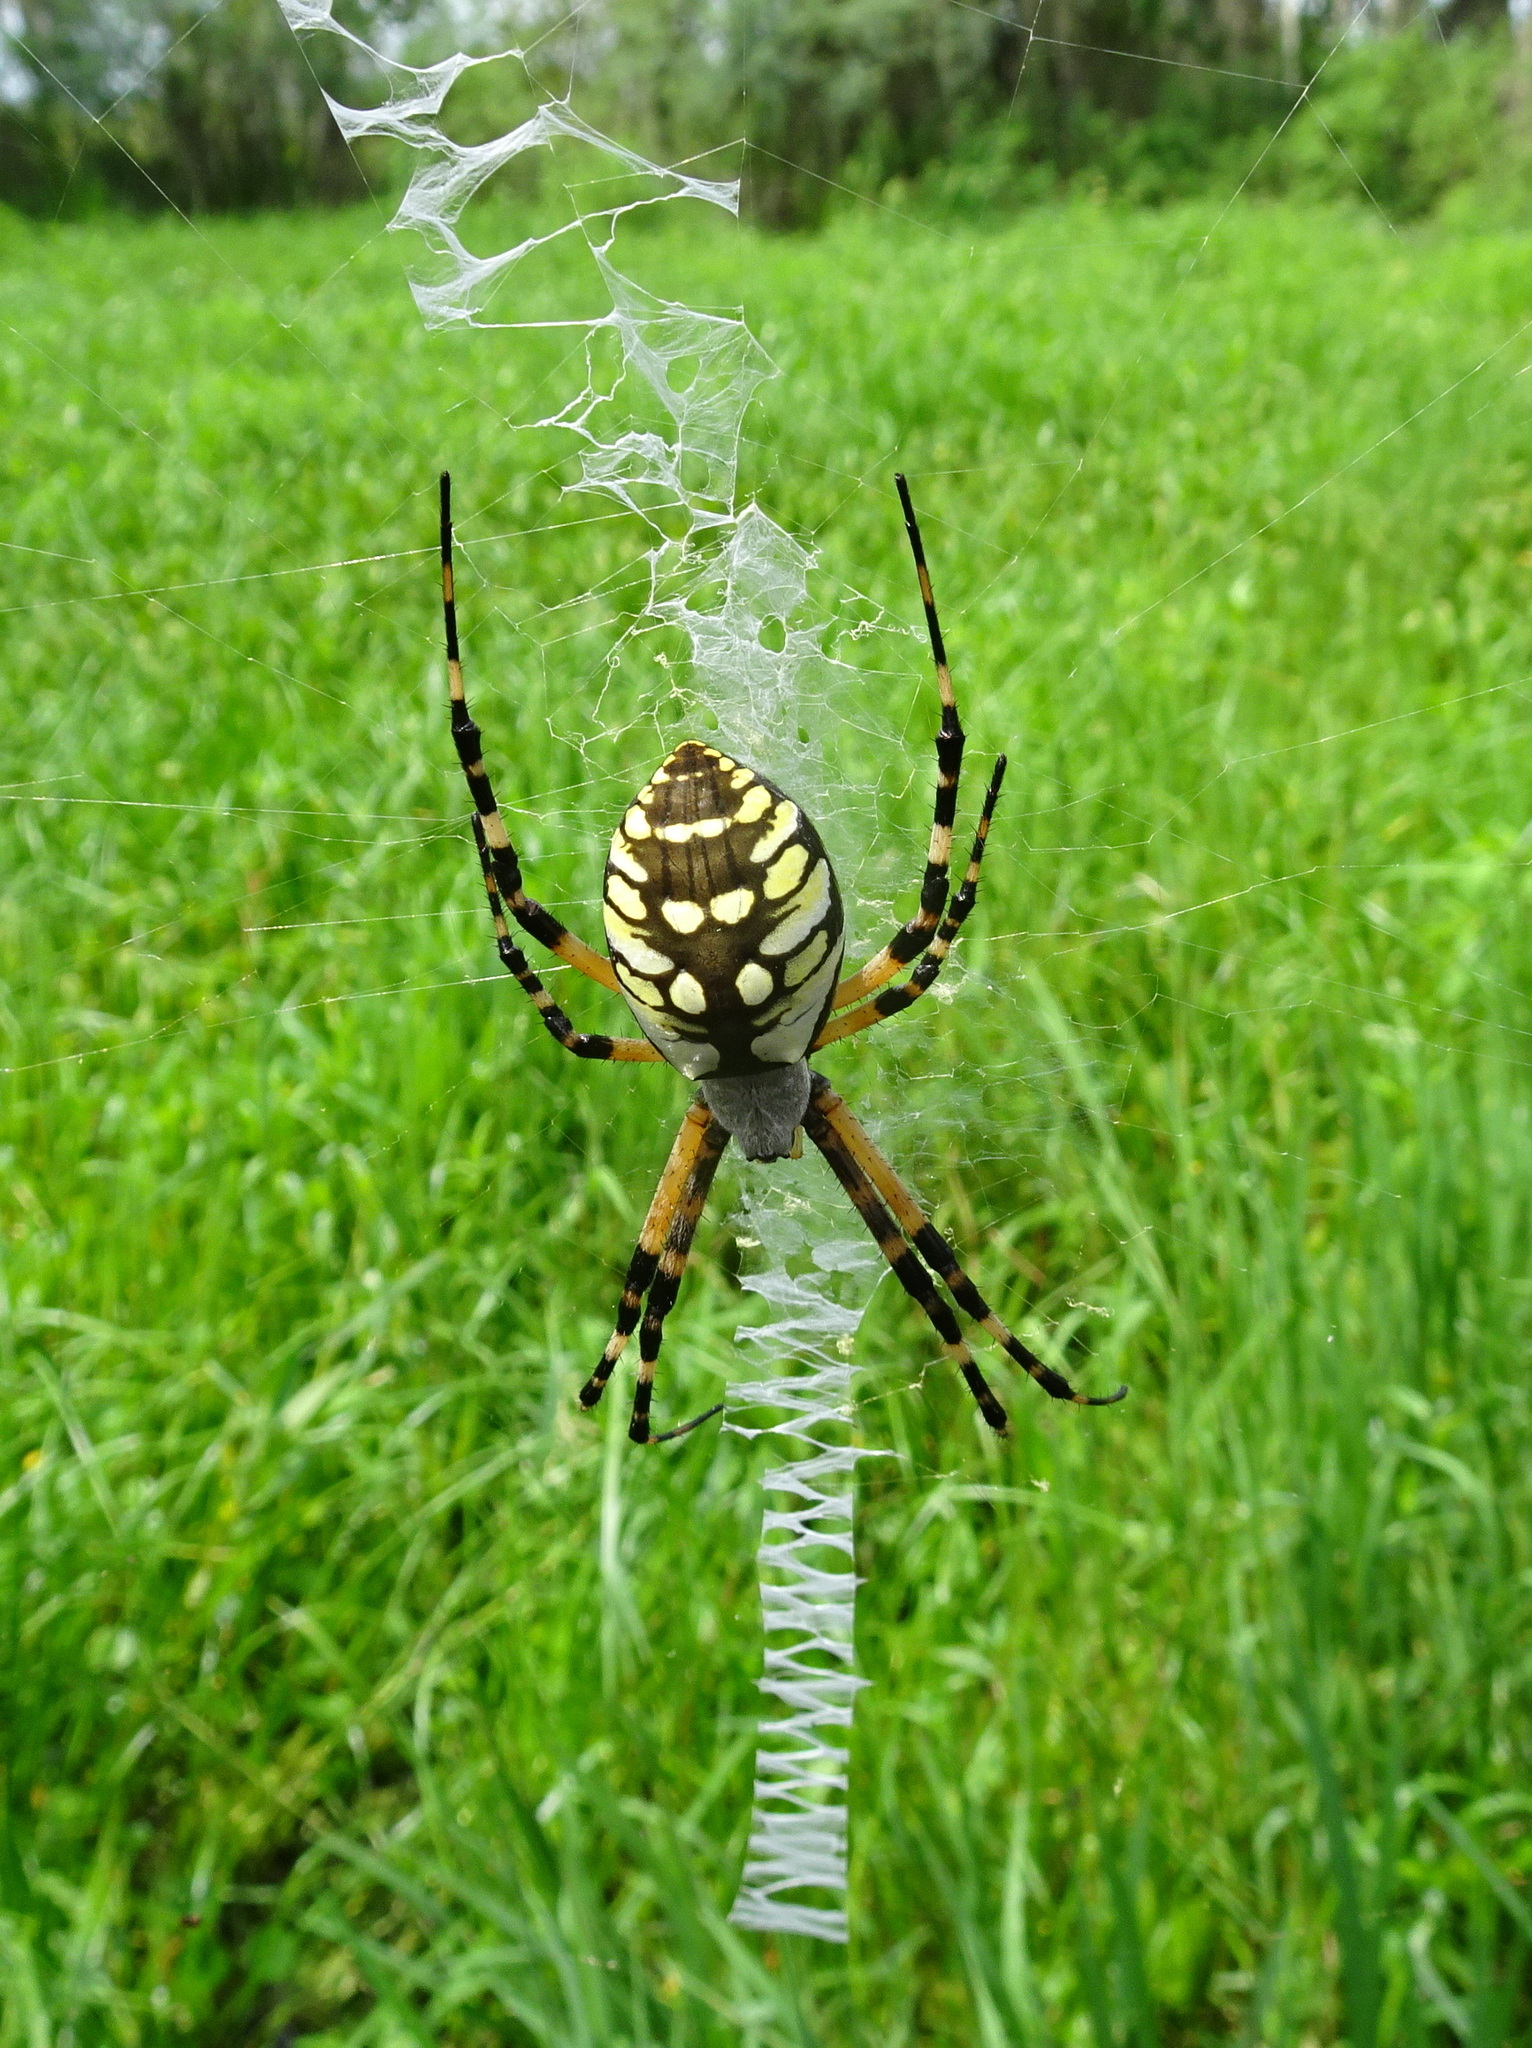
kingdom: Animalia
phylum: Arthropoda
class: Arachnida
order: Araneae
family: Araneidae
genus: Argiope
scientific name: Argiope aurantia
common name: Orb weavers
